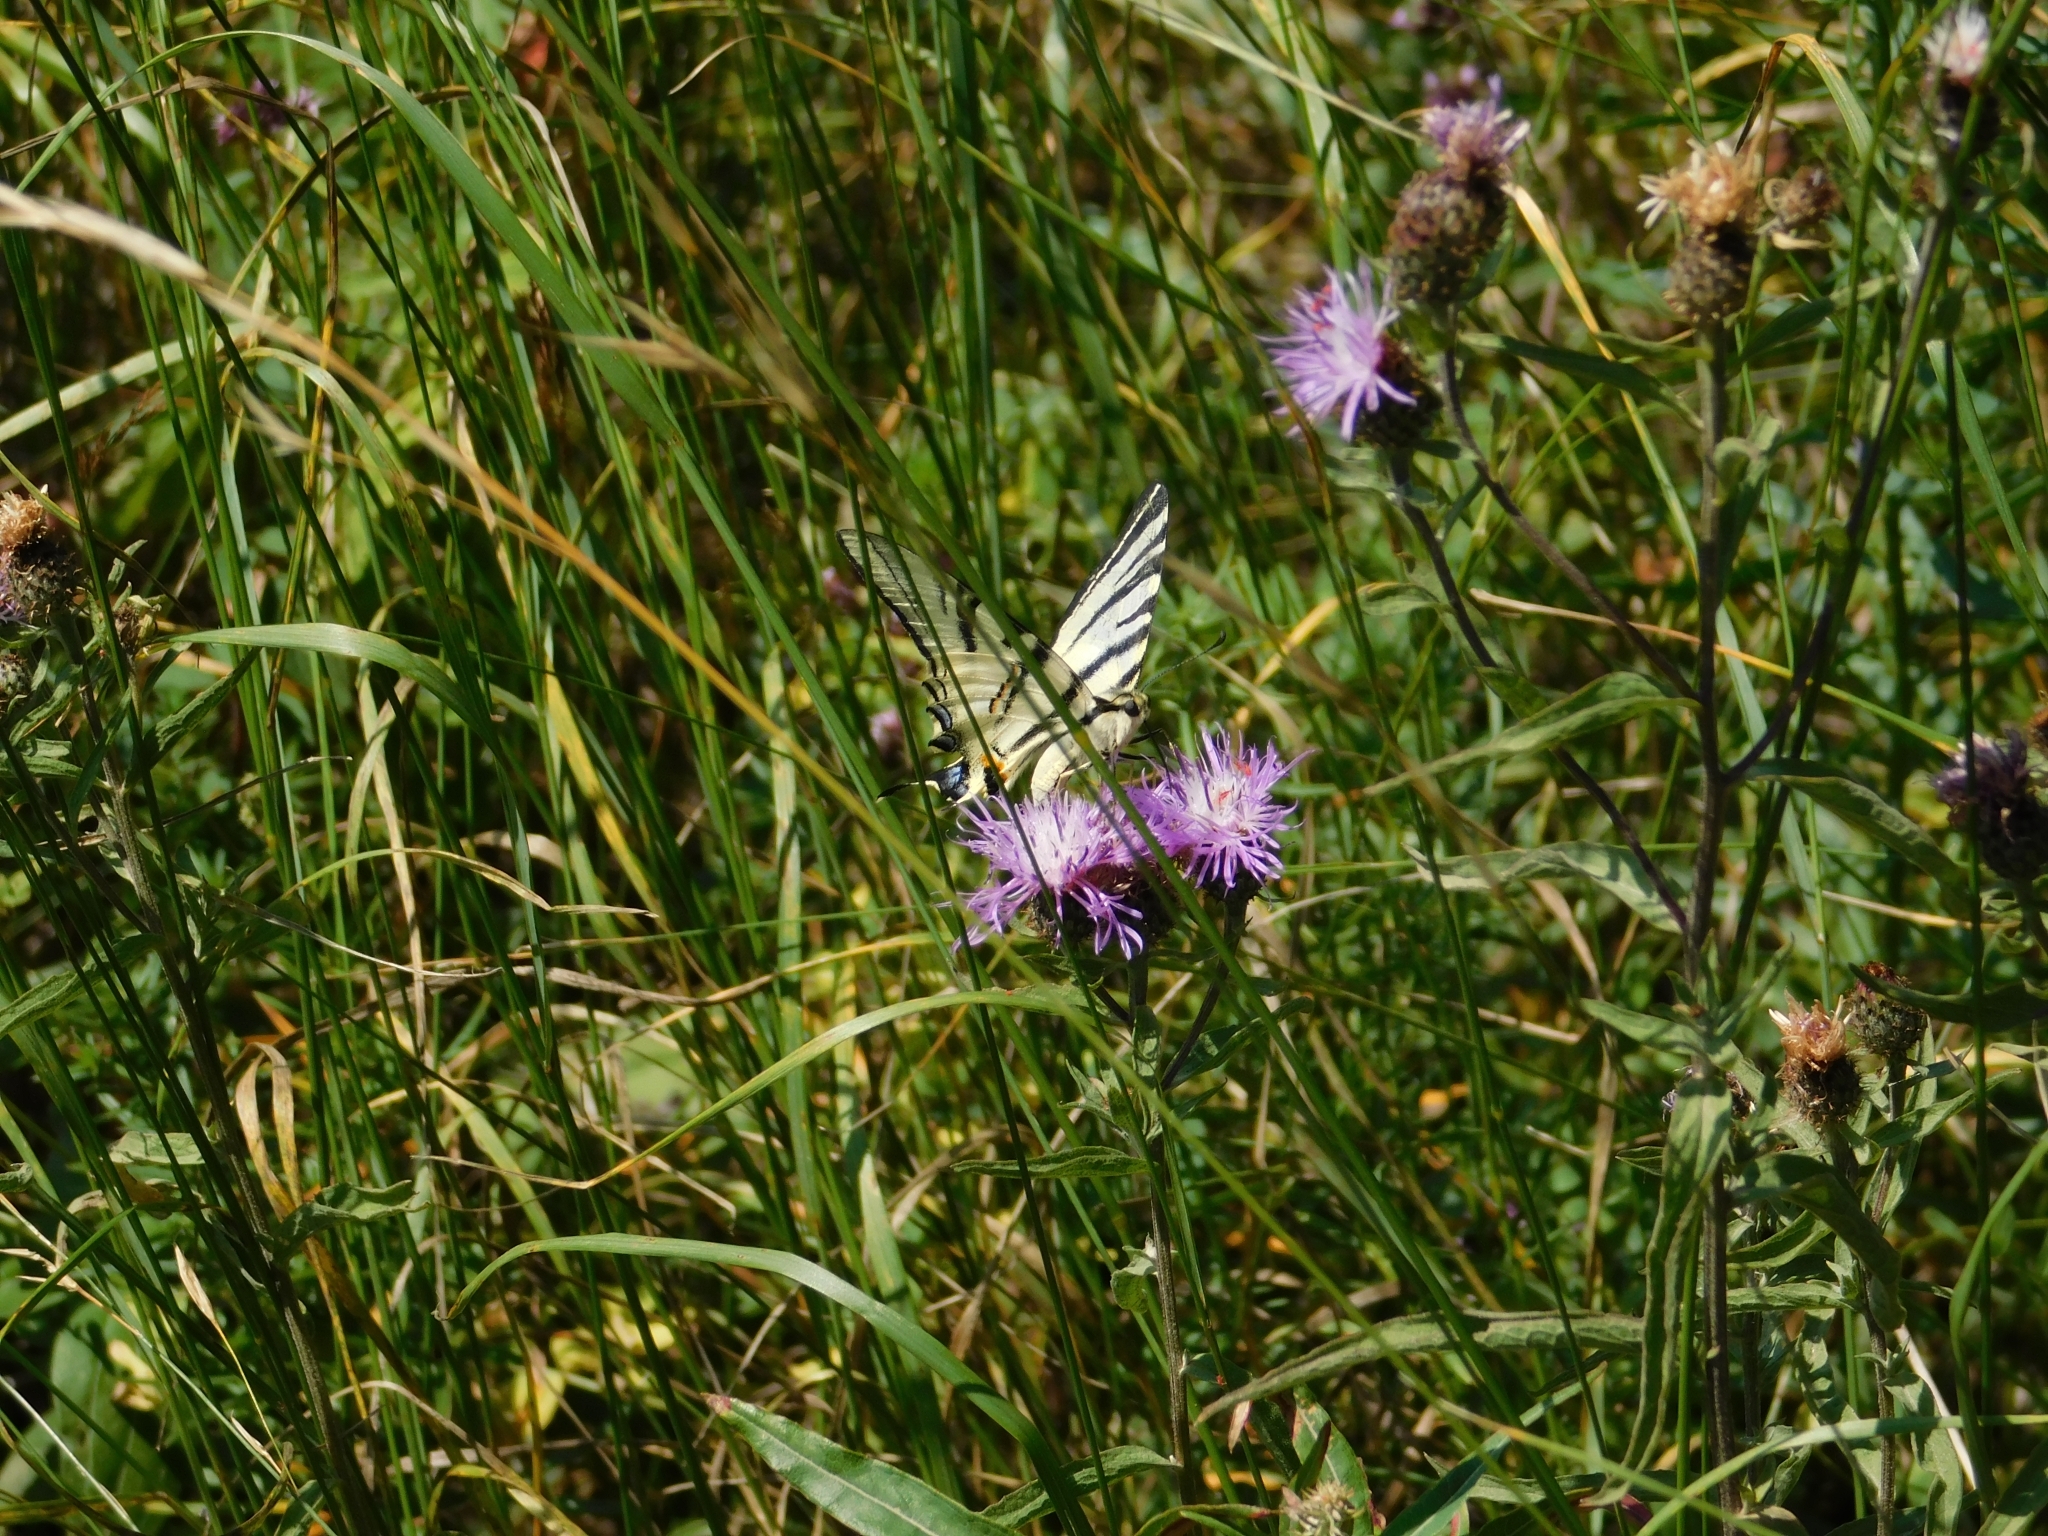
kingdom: Animalia
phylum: Arthropoda
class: Insecta
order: Lepidoptera
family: Papilionidae
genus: Iphiclides
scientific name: Iphiclides podalirius
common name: Scarce swallowtail
